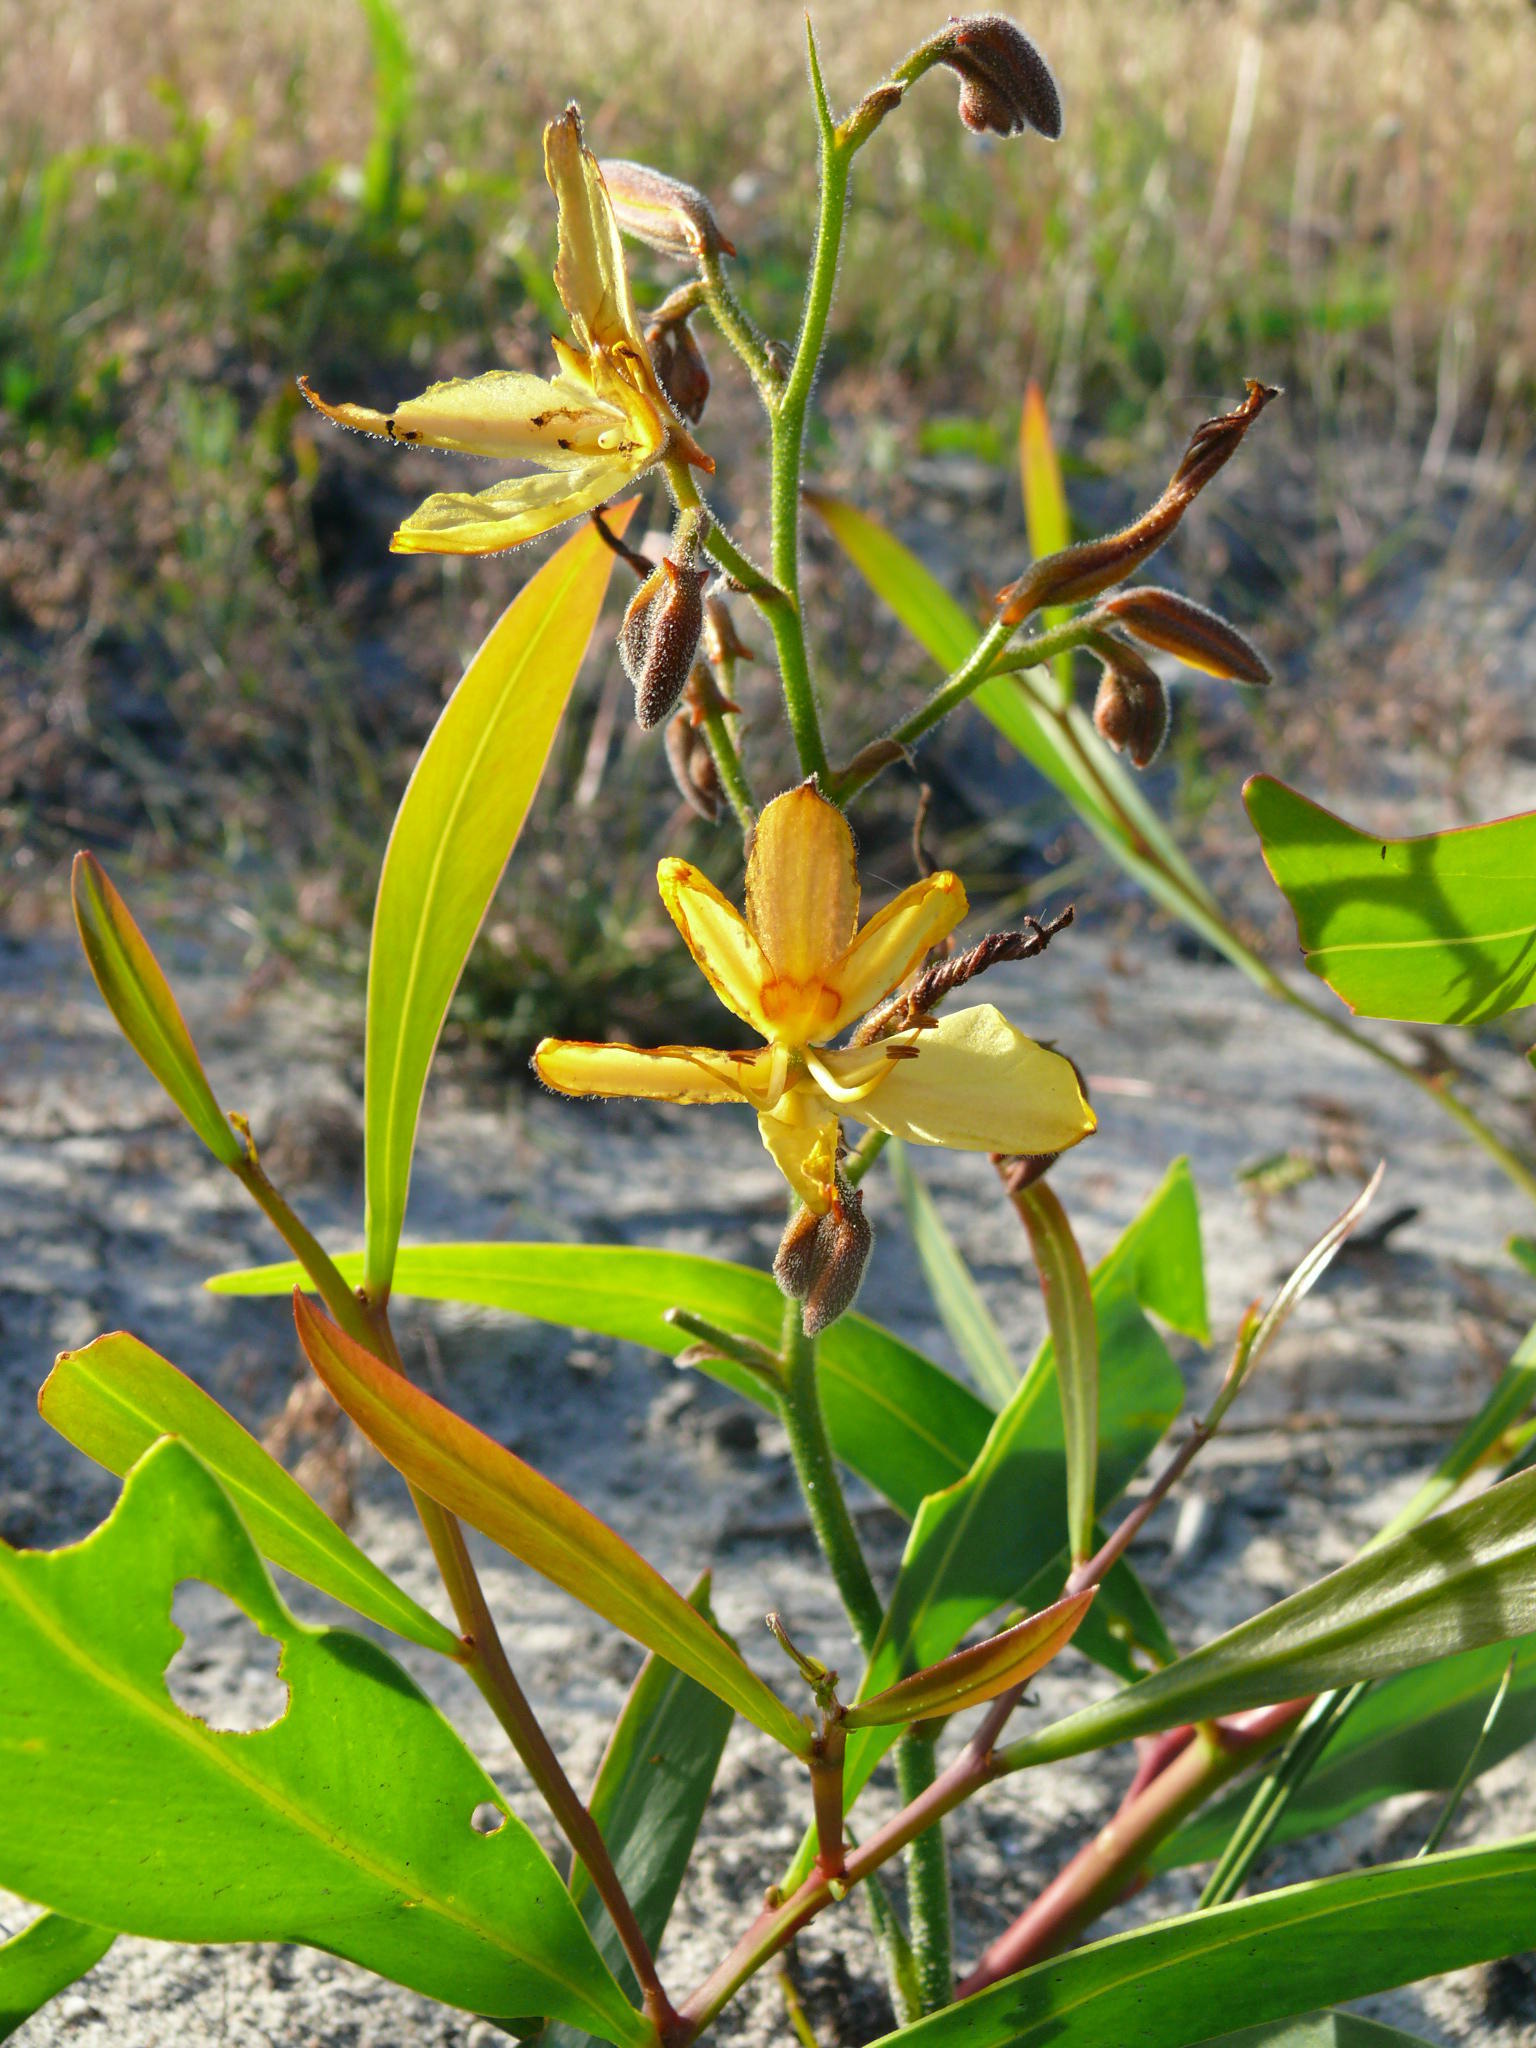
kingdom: Plantae
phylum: Tracheophyta
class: Liliopsida
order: Commelinales
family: Haemodoraceae
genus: Wachendorfia
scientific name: Wachendorfia paniculata
